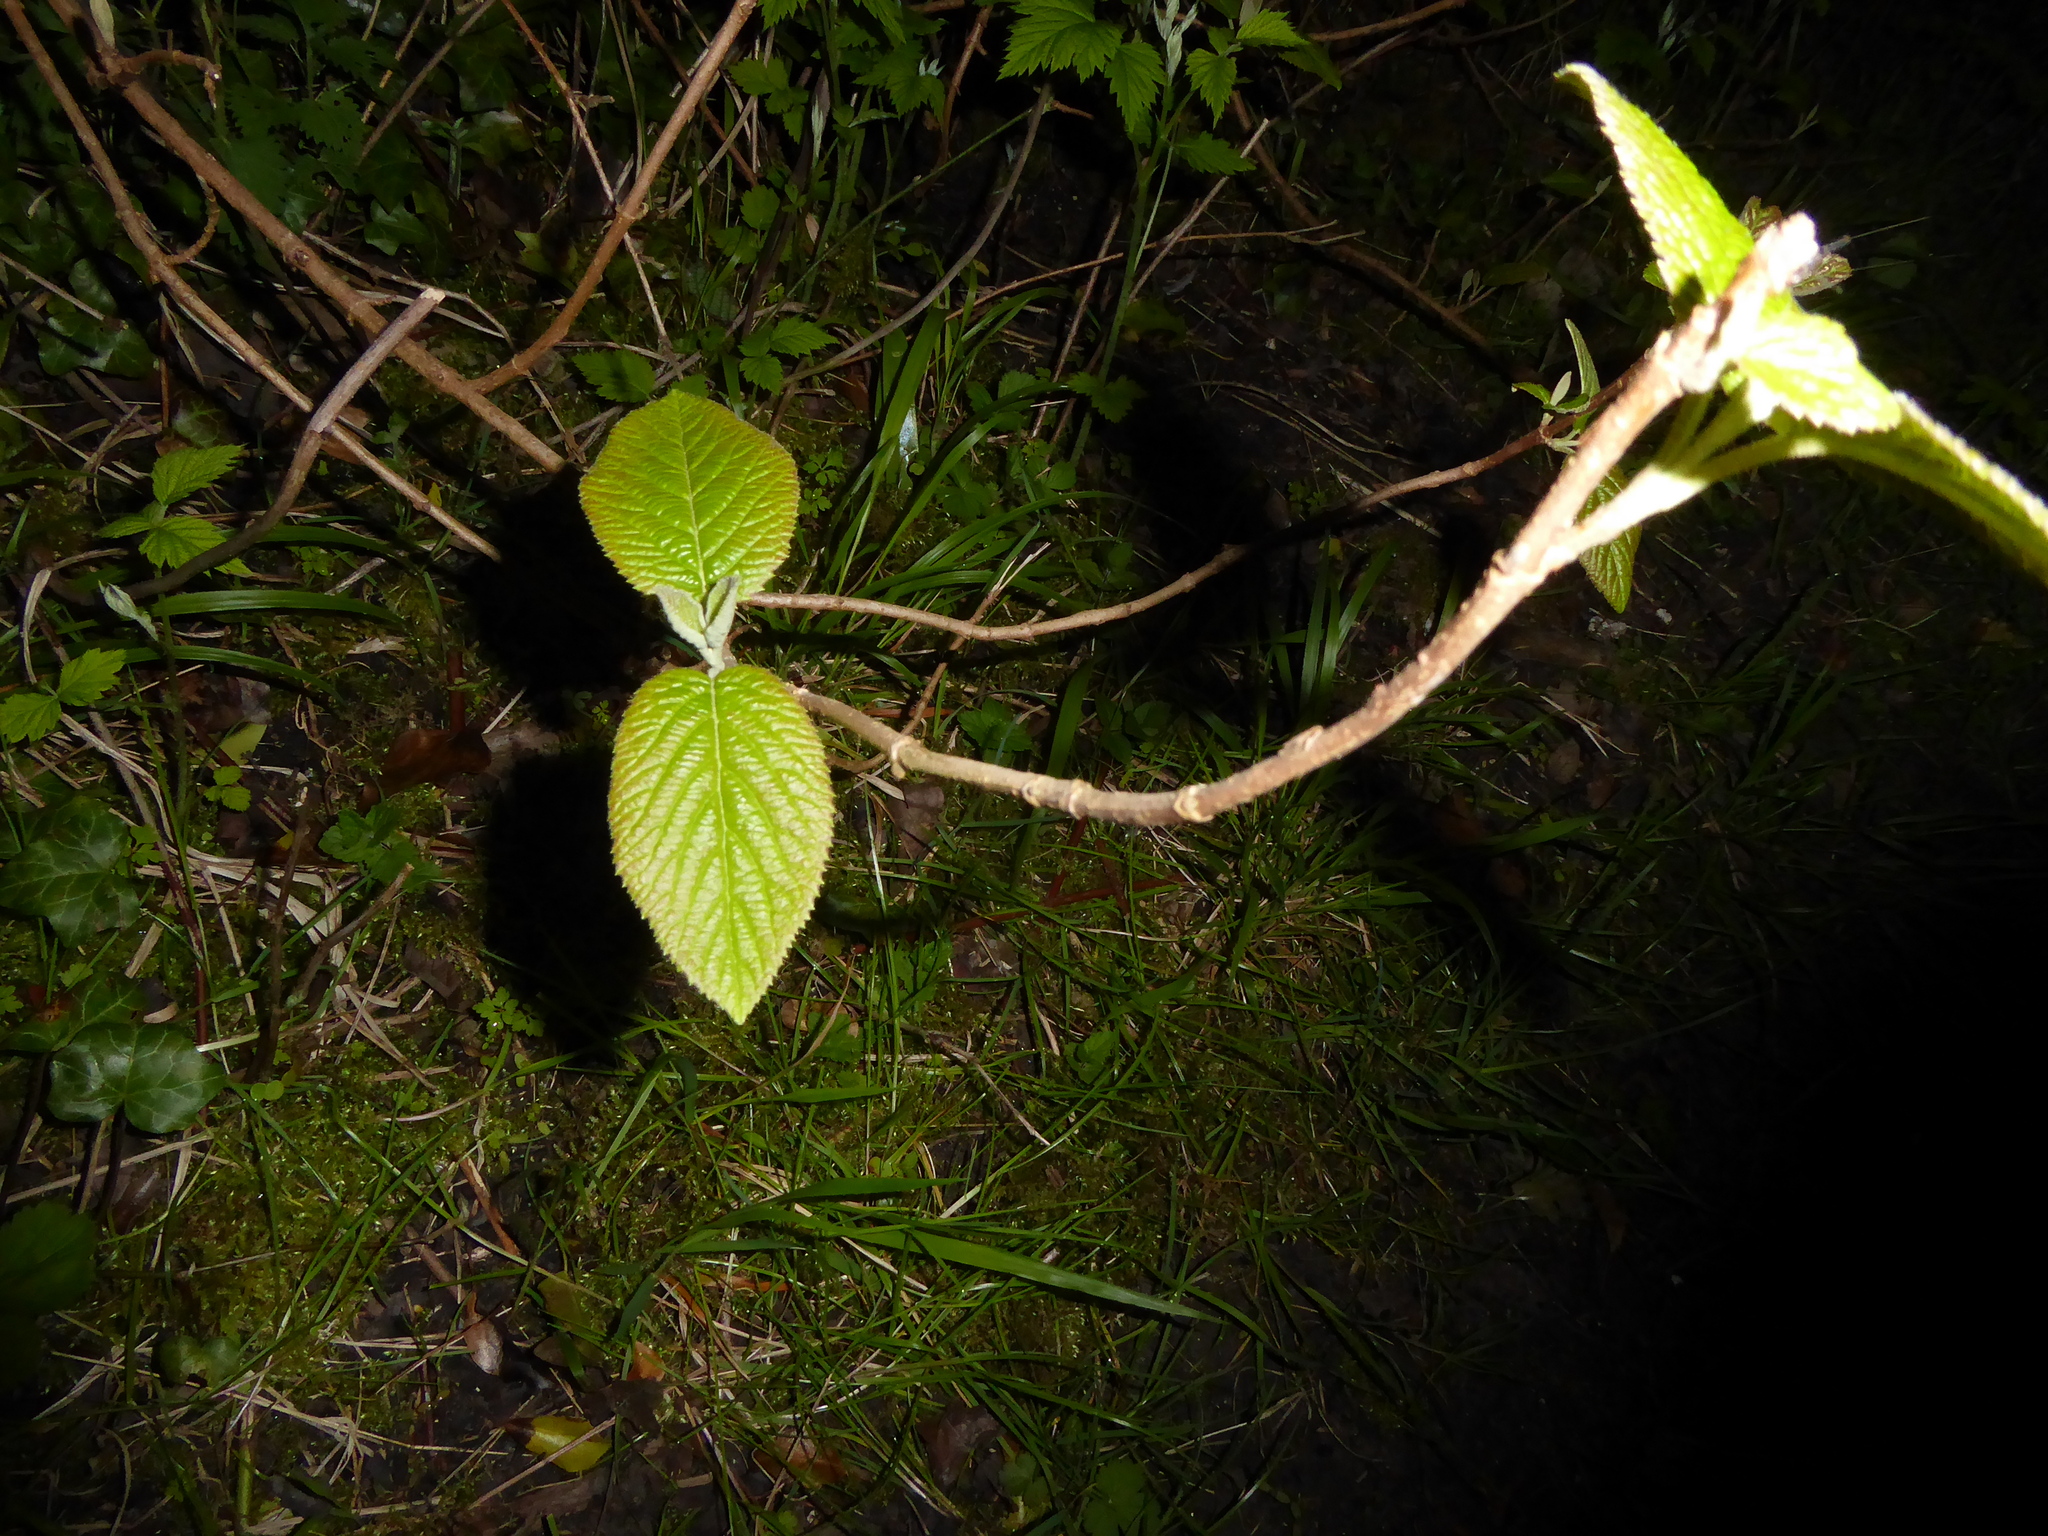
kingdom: Plantae
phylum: Tracheophyta
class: Magnoliopsida
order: Dipsacales
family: Viburnaceae
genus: Viburnum
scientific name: Viburnum lantana
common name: Wayfaring tree
